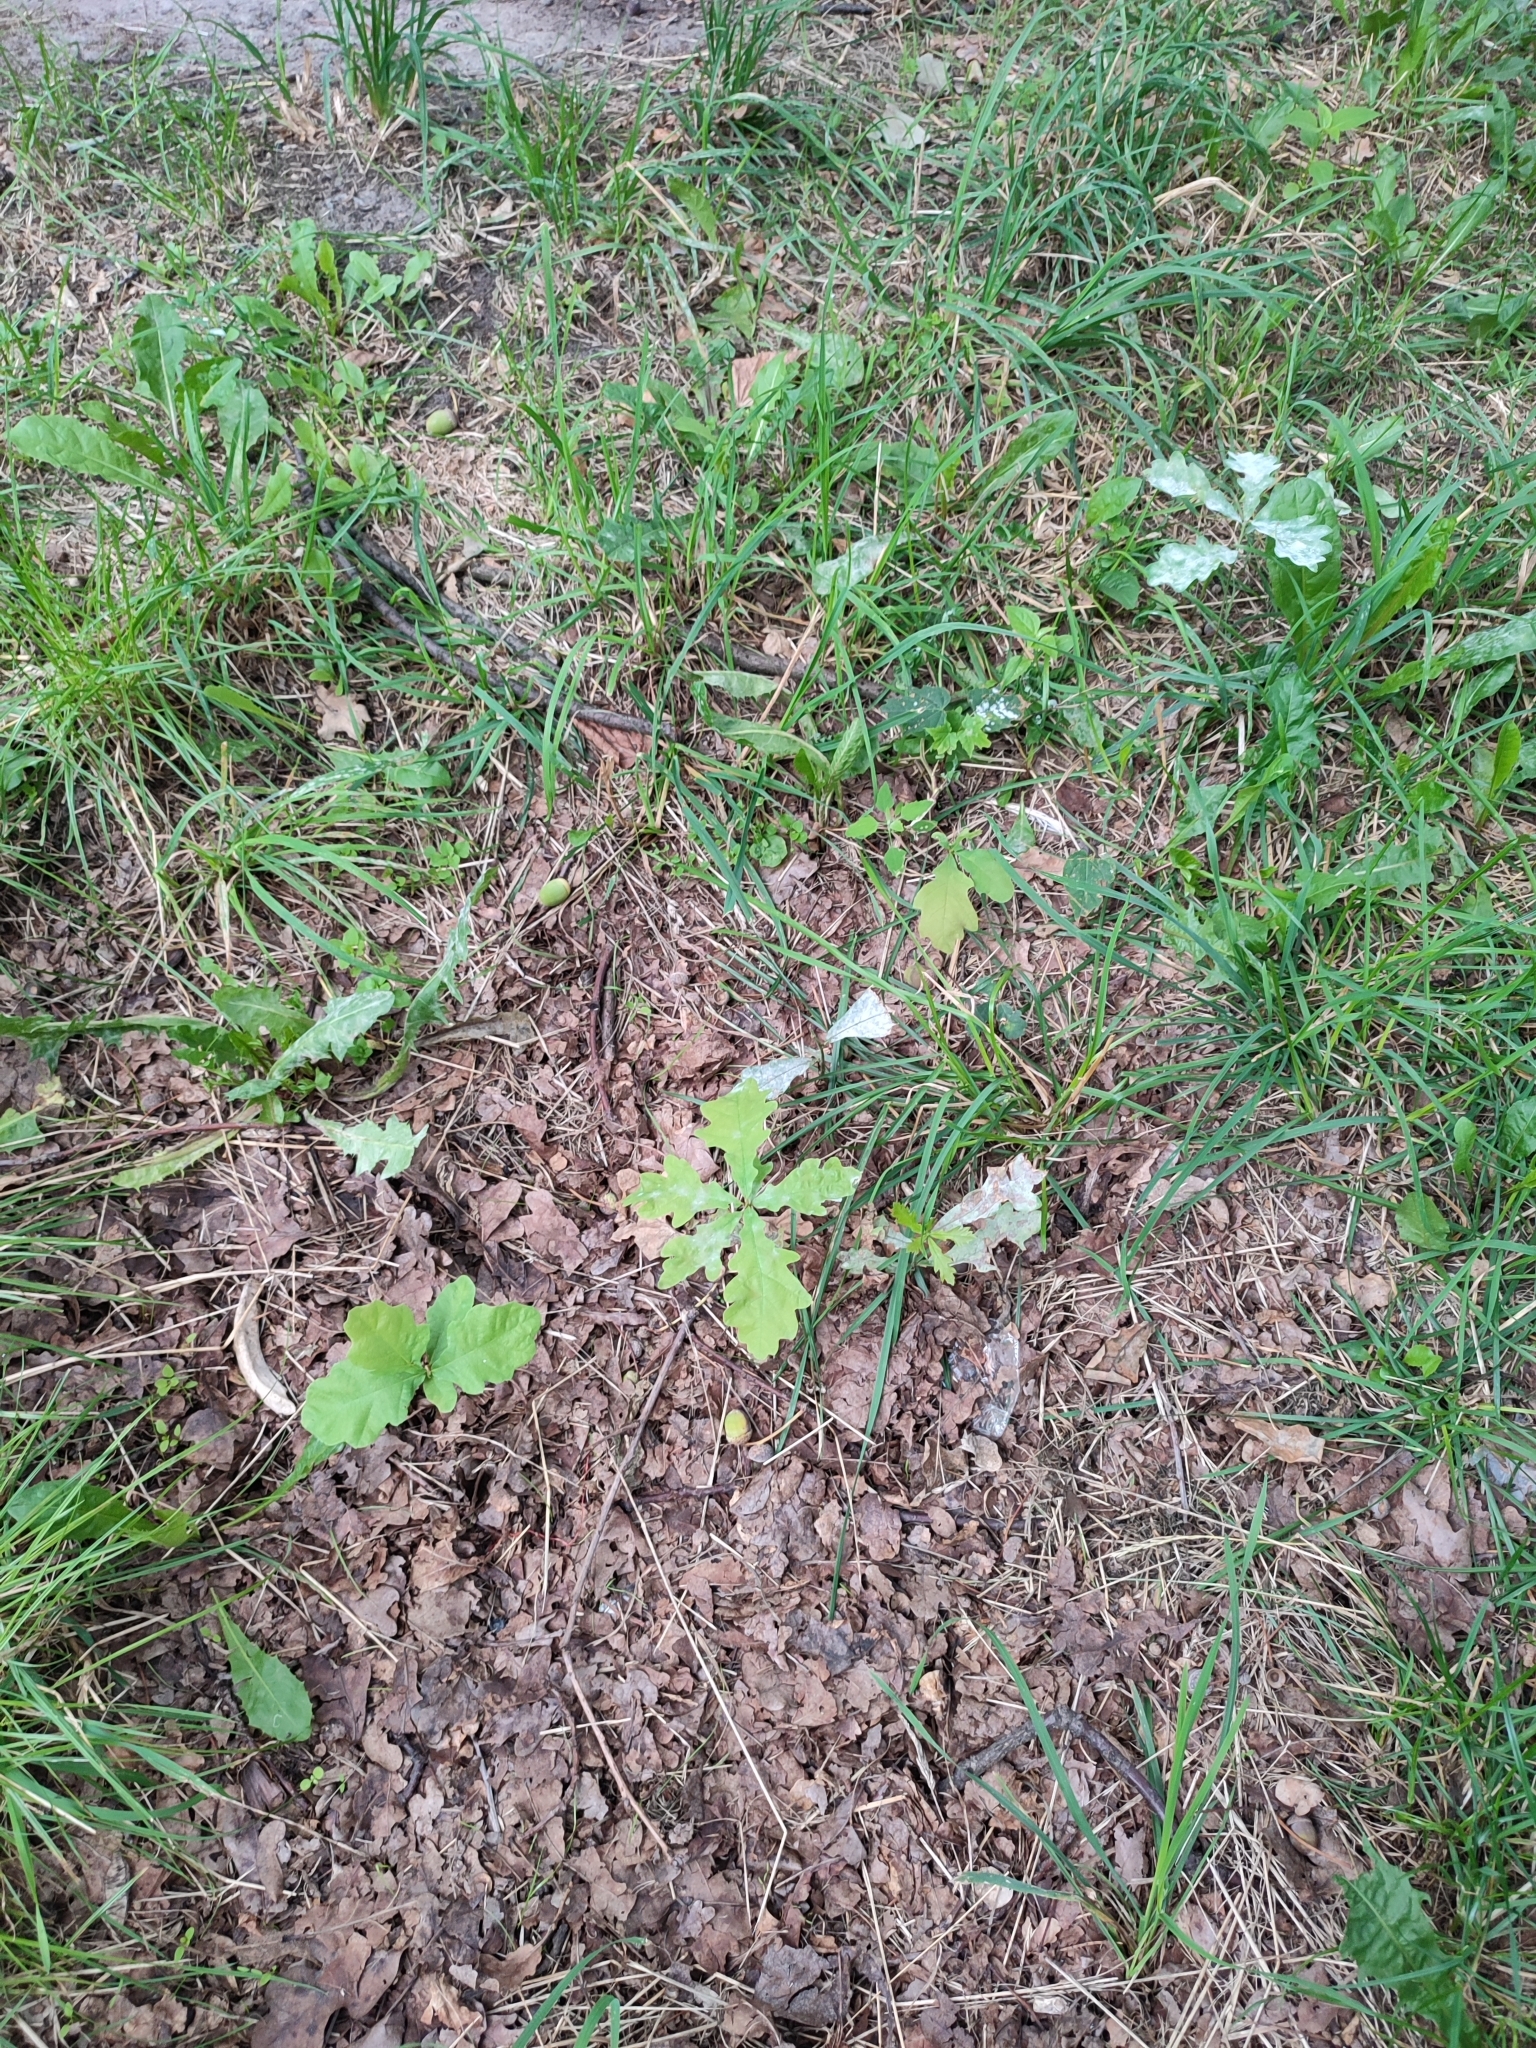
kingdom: Plantae
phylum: Tracheophyta
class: Magnoliopsida
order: Fagales
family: Fagaceae
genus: Quercus
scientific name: Quercus robur
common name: Pedunculate oak
